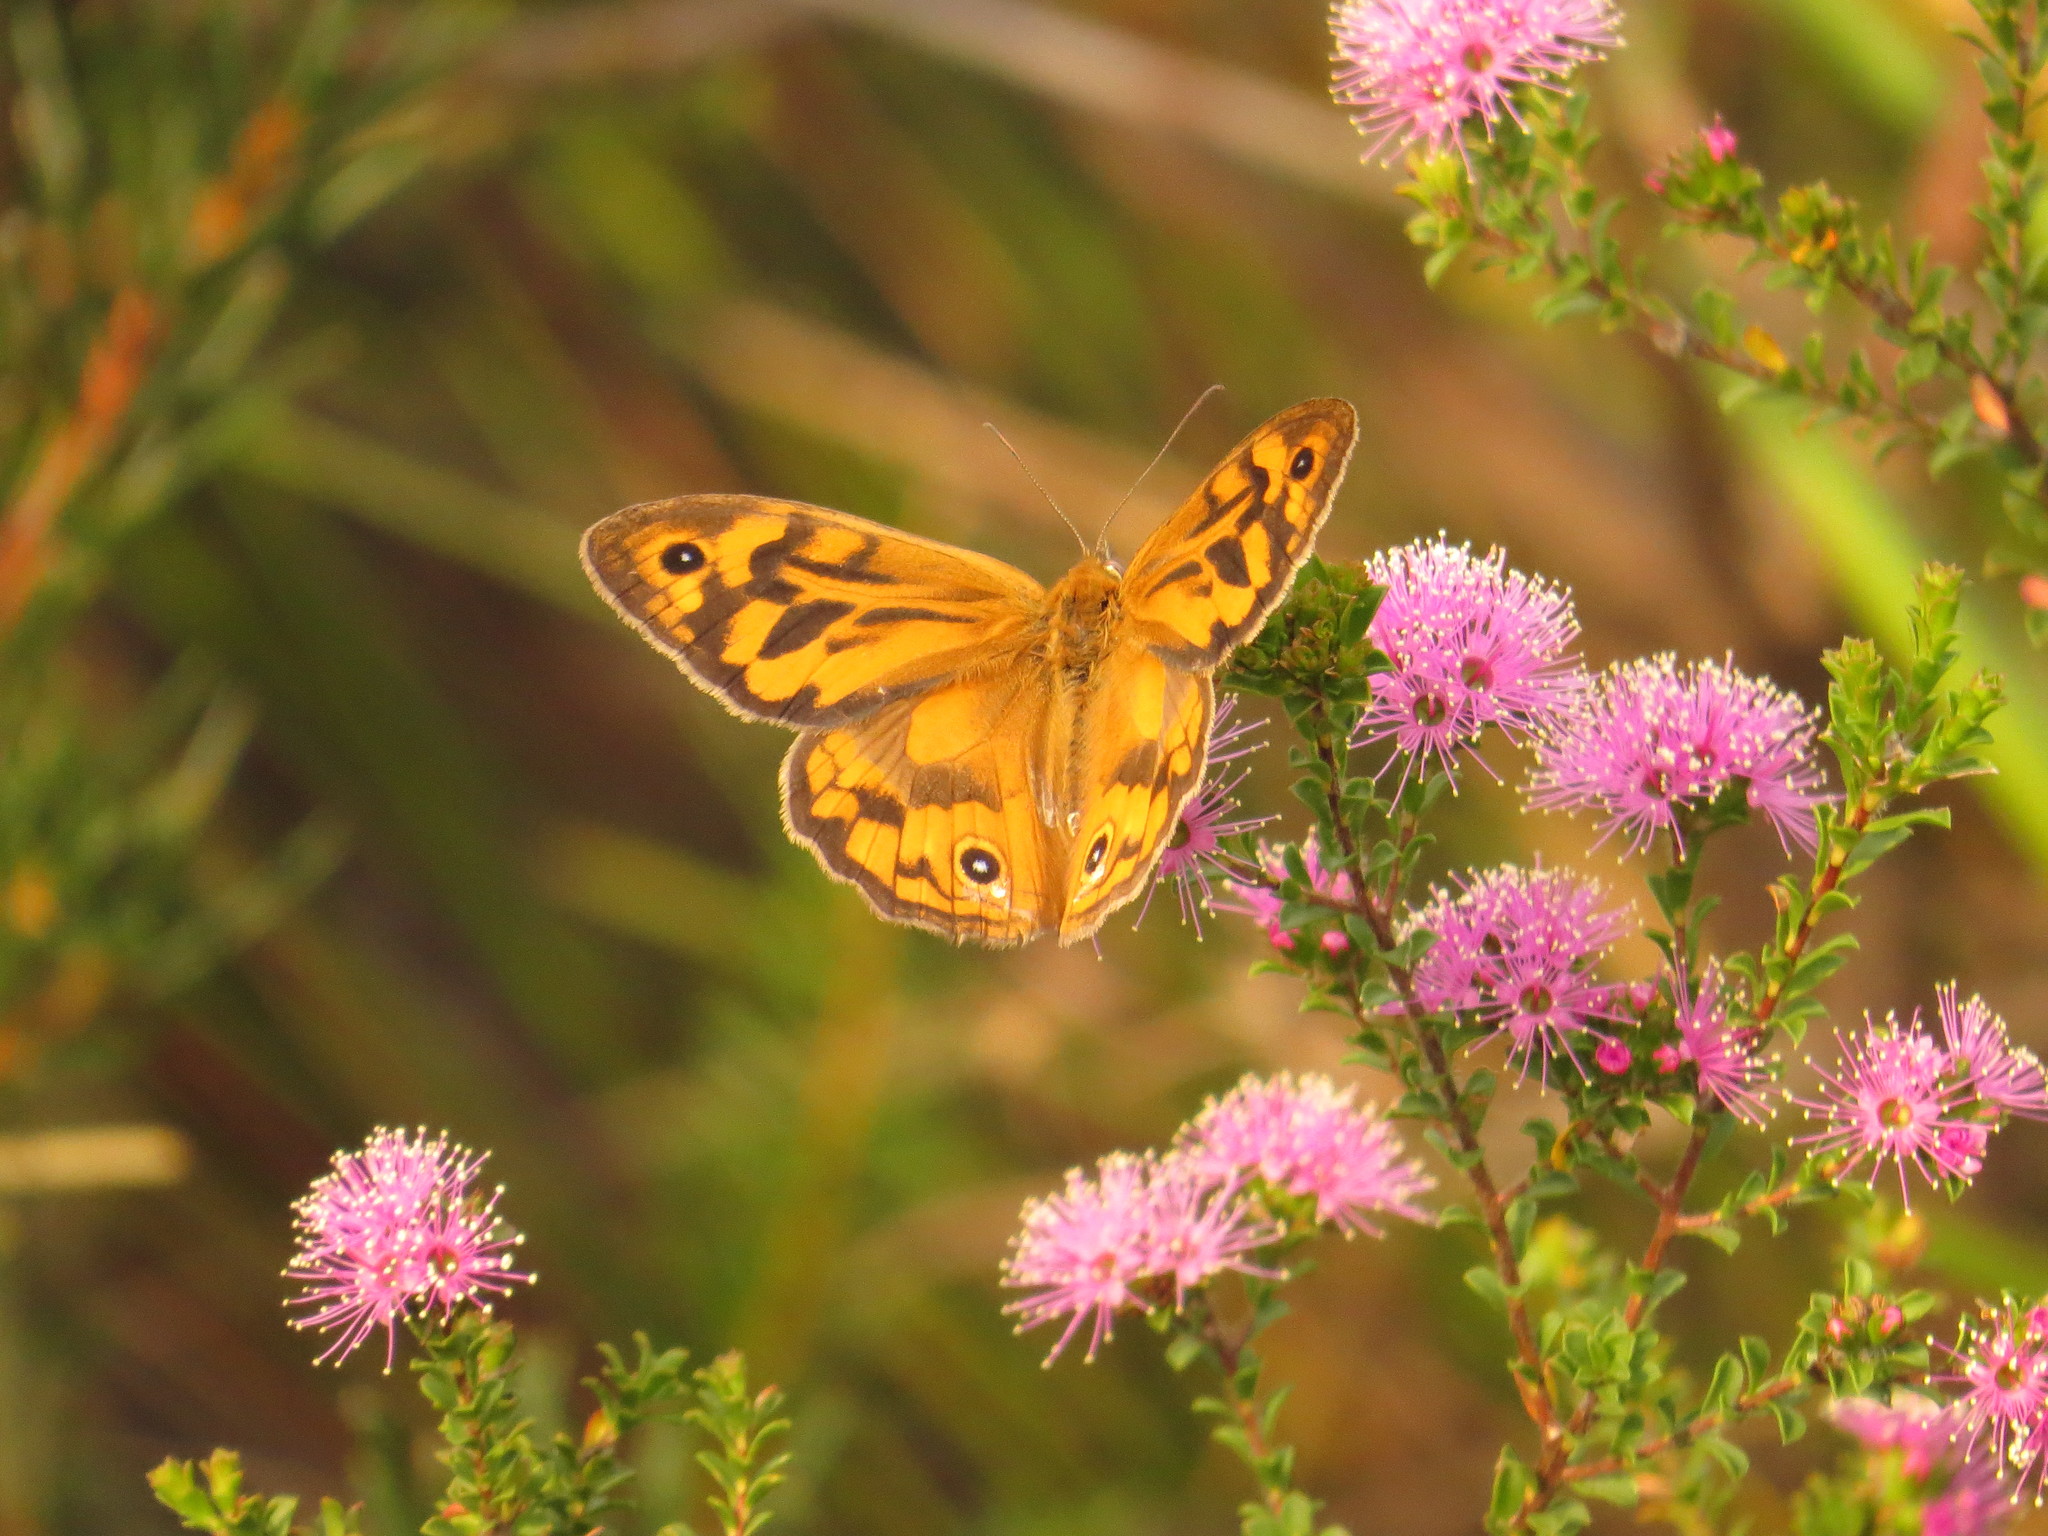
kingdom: Animalia
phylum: Arthropoda
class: Insecta
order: Lepidoptera
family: Nymphalidae
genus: Heteronympha
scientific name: Heteronympha merope
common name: Common brown
